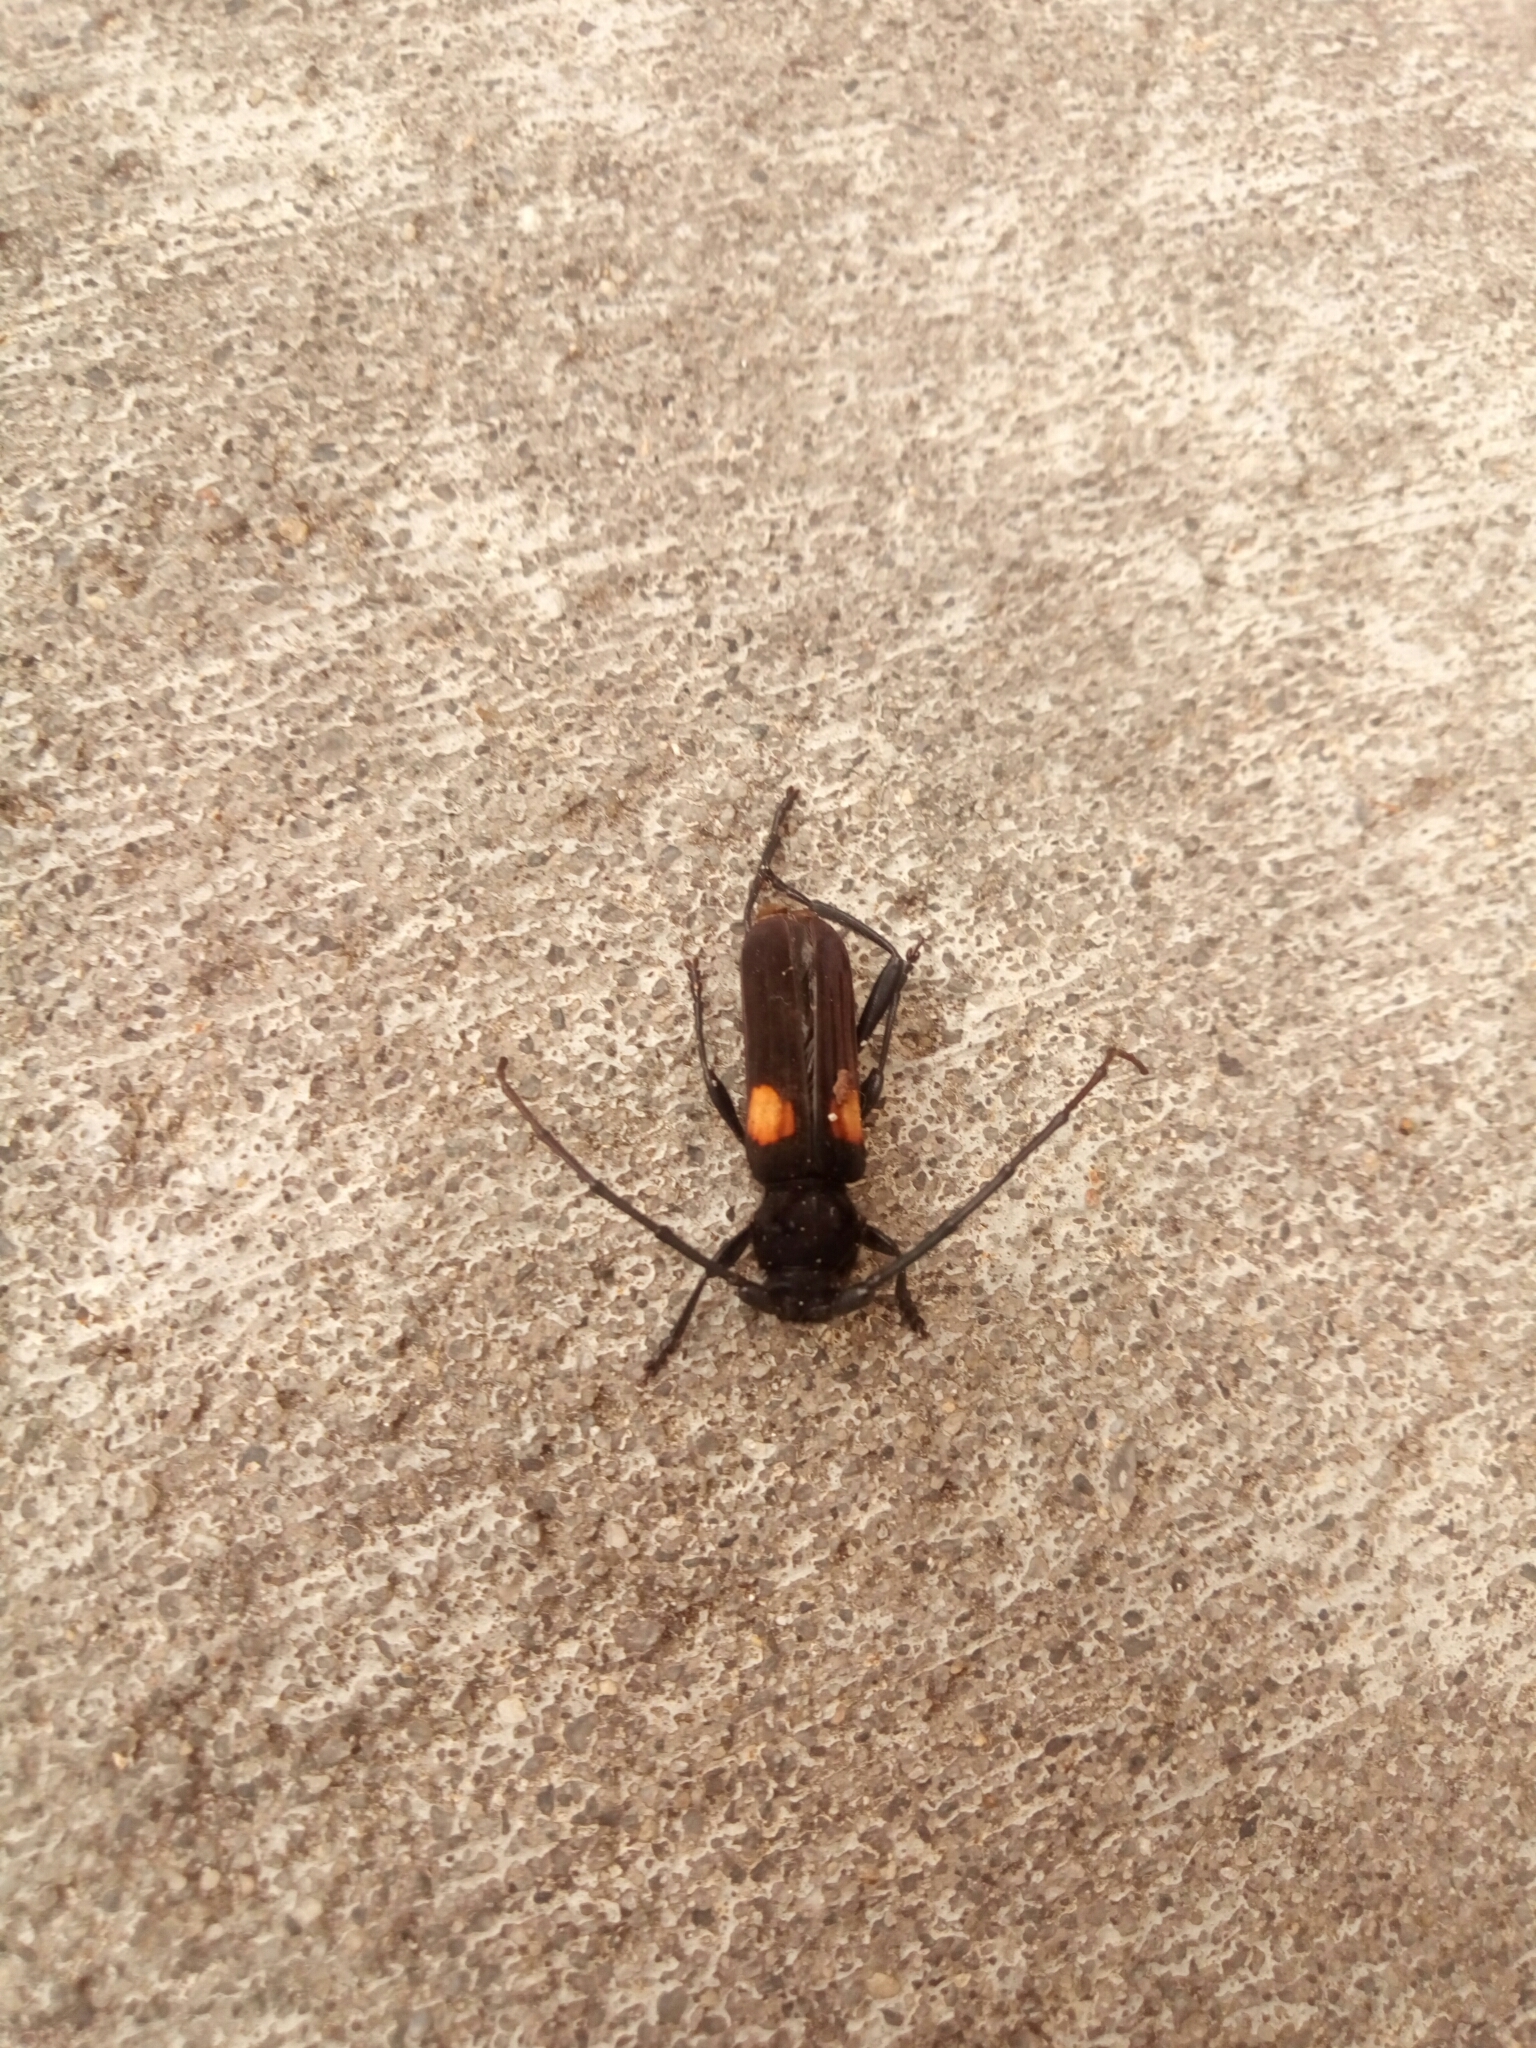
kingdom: Animalia
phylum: Arthropoda
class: Insecta
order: Coleoptera
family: Cerambycidae
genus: Tragidion
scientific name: Tragidion coquus
